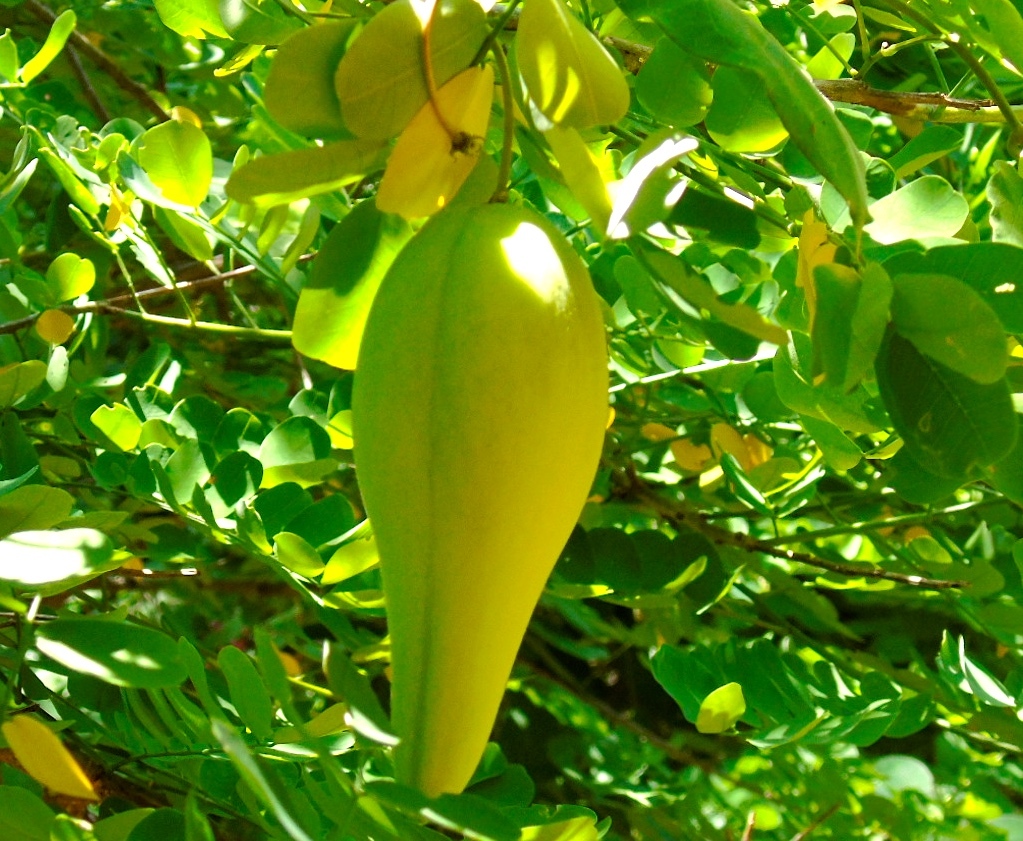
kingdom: Plantae
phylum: Tracheophyta
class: Magnoliopsida
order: Gentianales
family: Apocynaceae
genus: Funastrum
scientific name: Funastrum clausum
